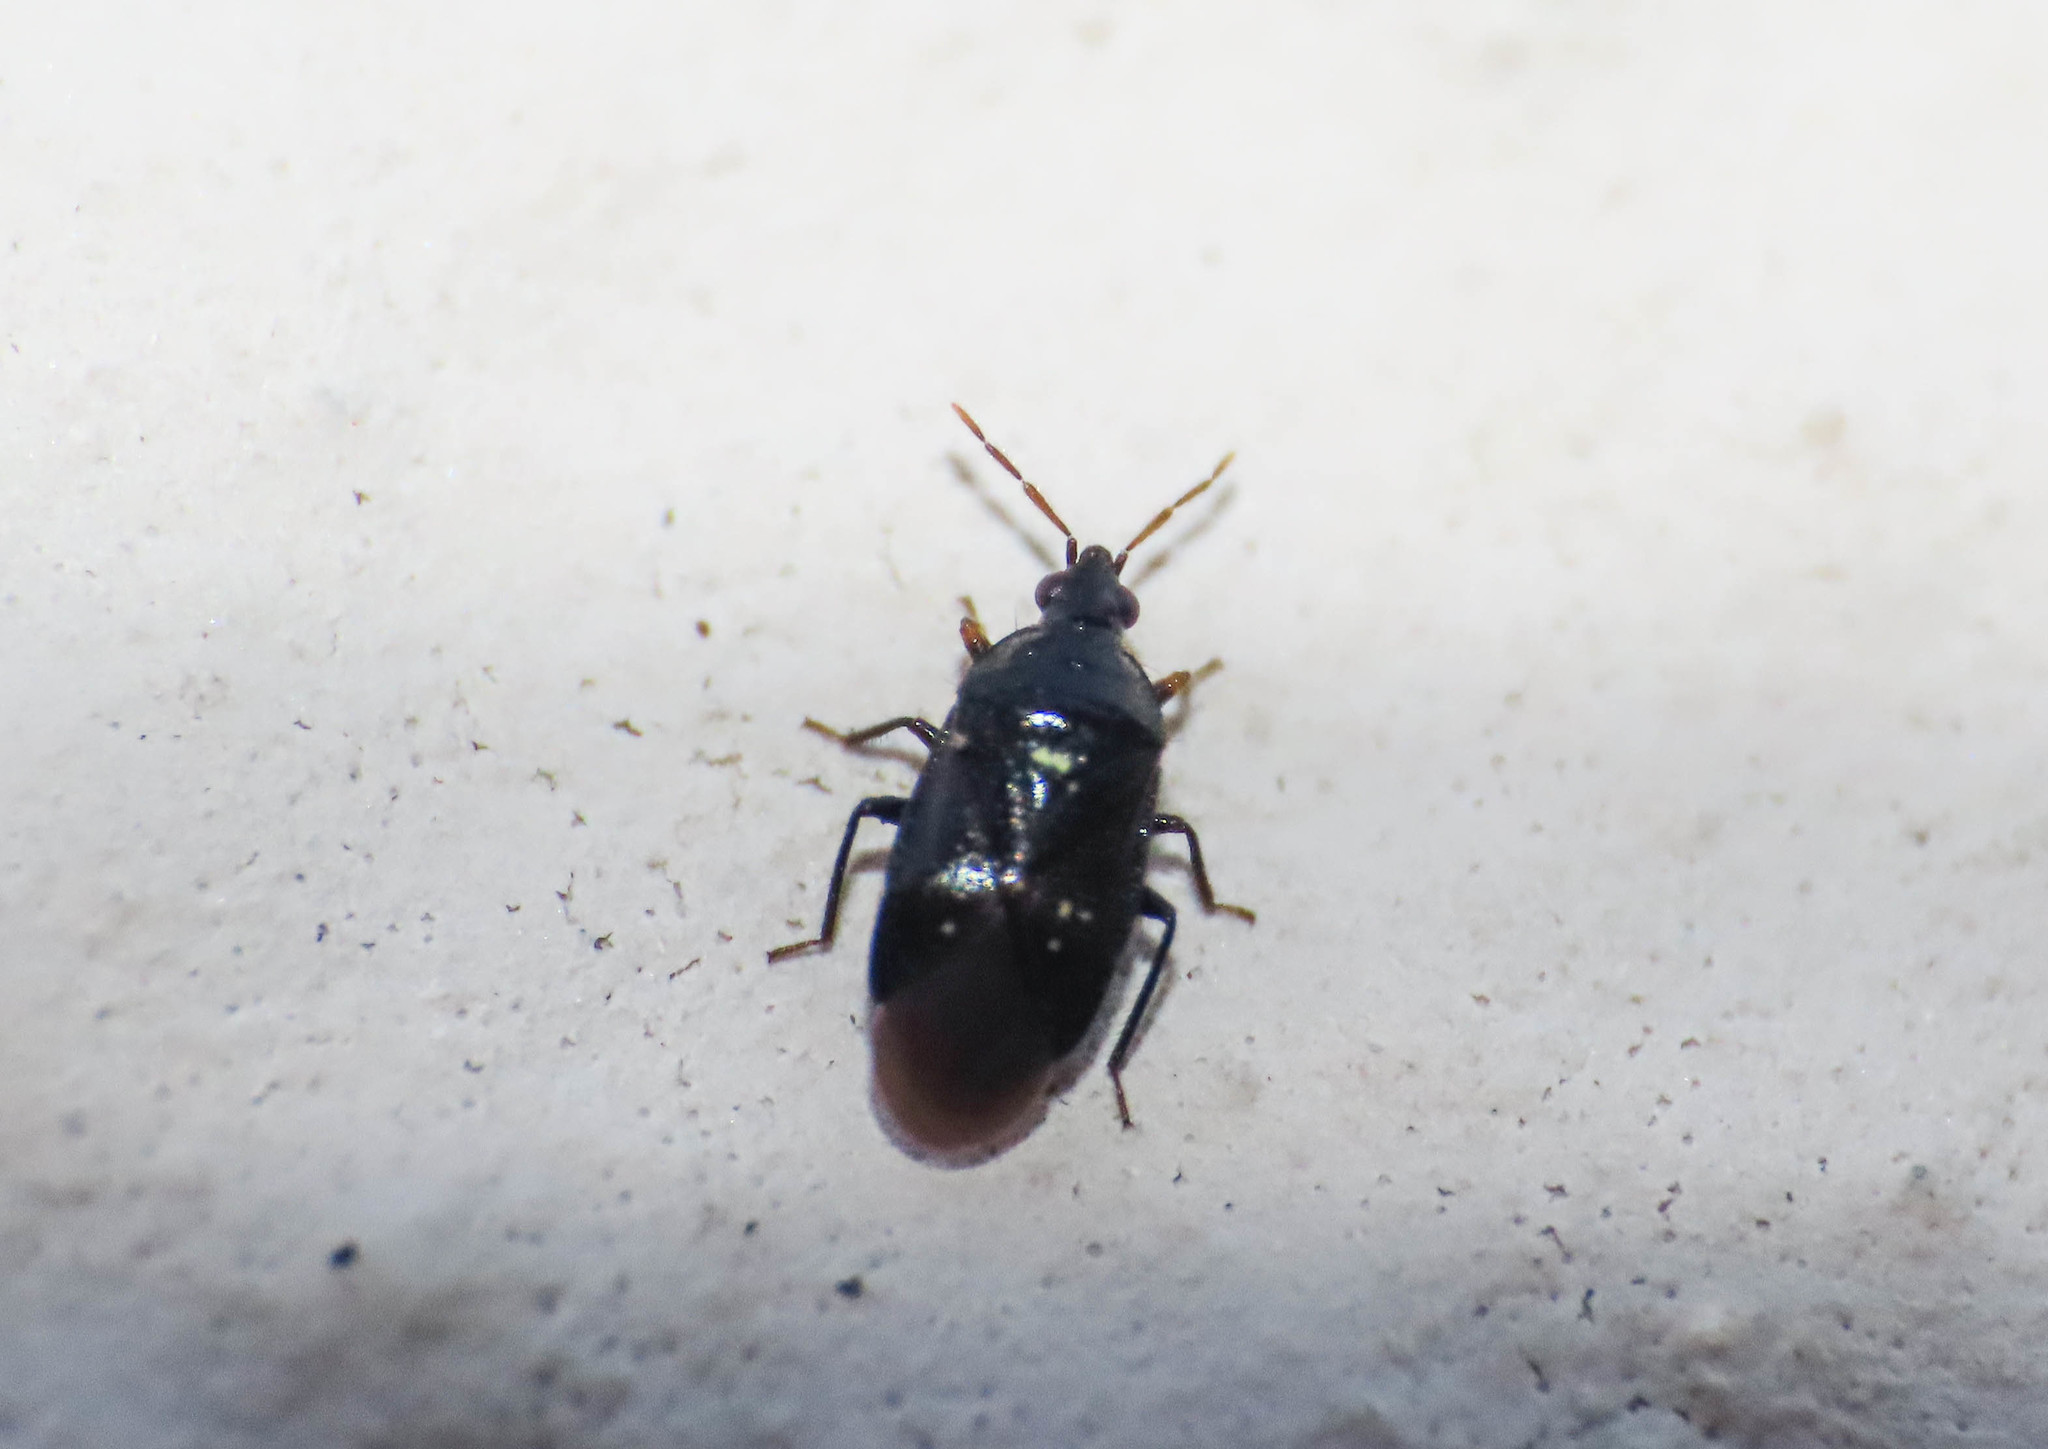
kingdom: Animalia
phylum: Arthropoda
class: Insecta
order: Hemiptera
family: Anthocoridae
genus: Orius
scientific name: Orius niger
